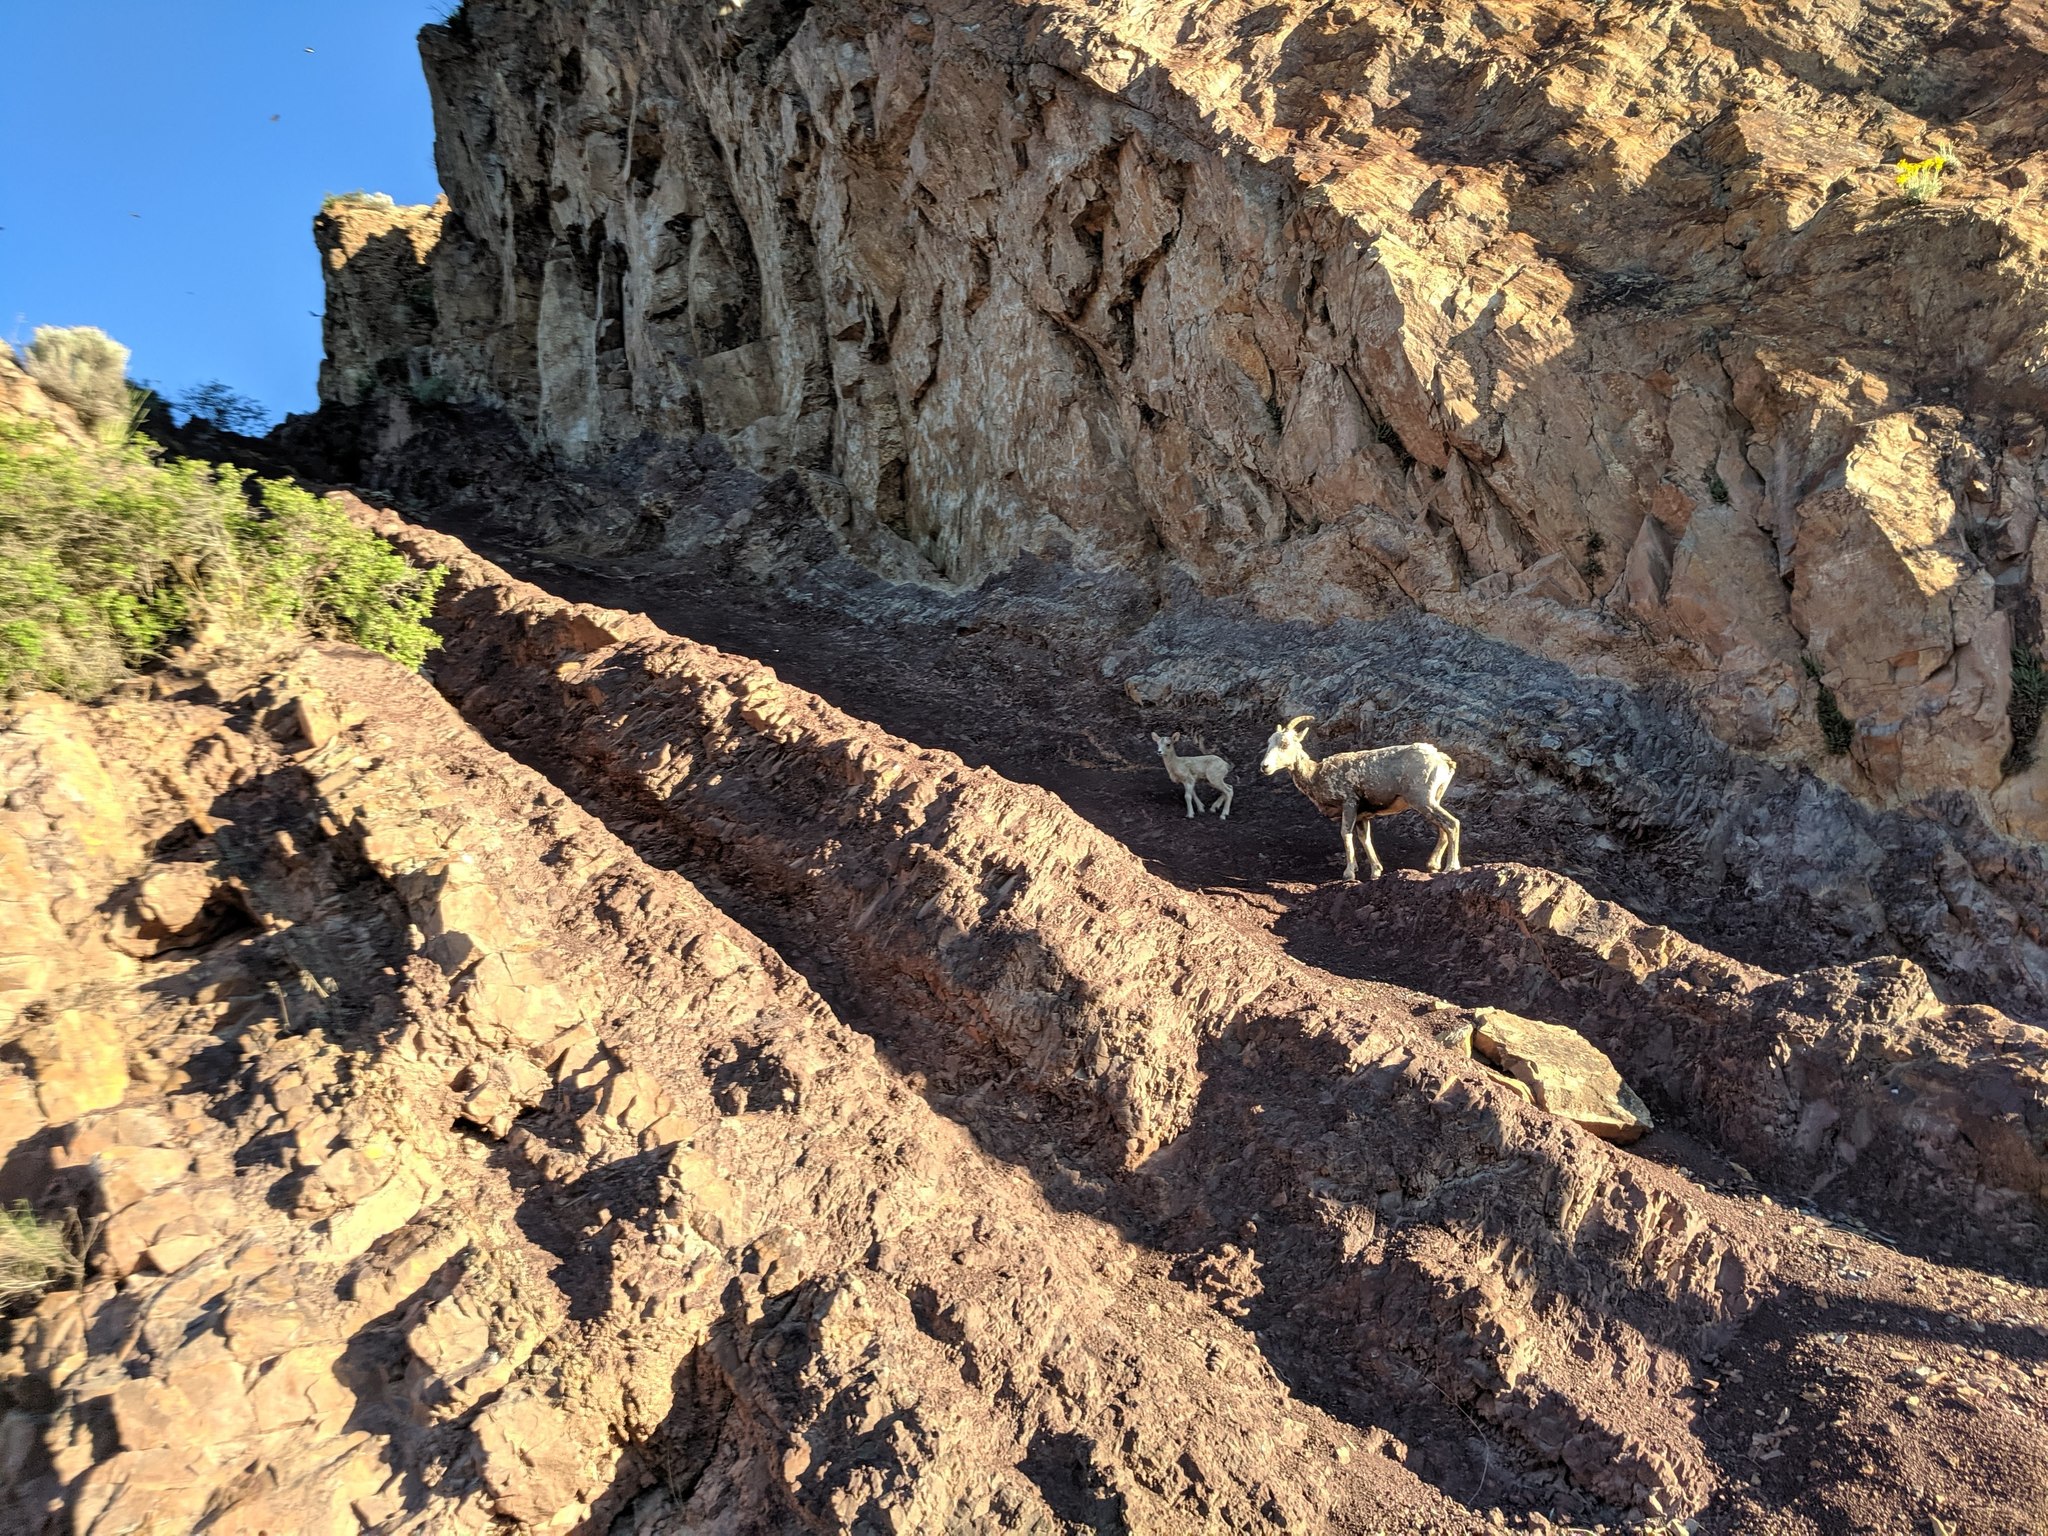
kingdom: Animalia
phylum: Chordata
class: Mammalia
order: Artiodactyla
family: Bovidae
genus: Ovis
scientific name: Ovis canadensis
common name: Bighorn sheep
